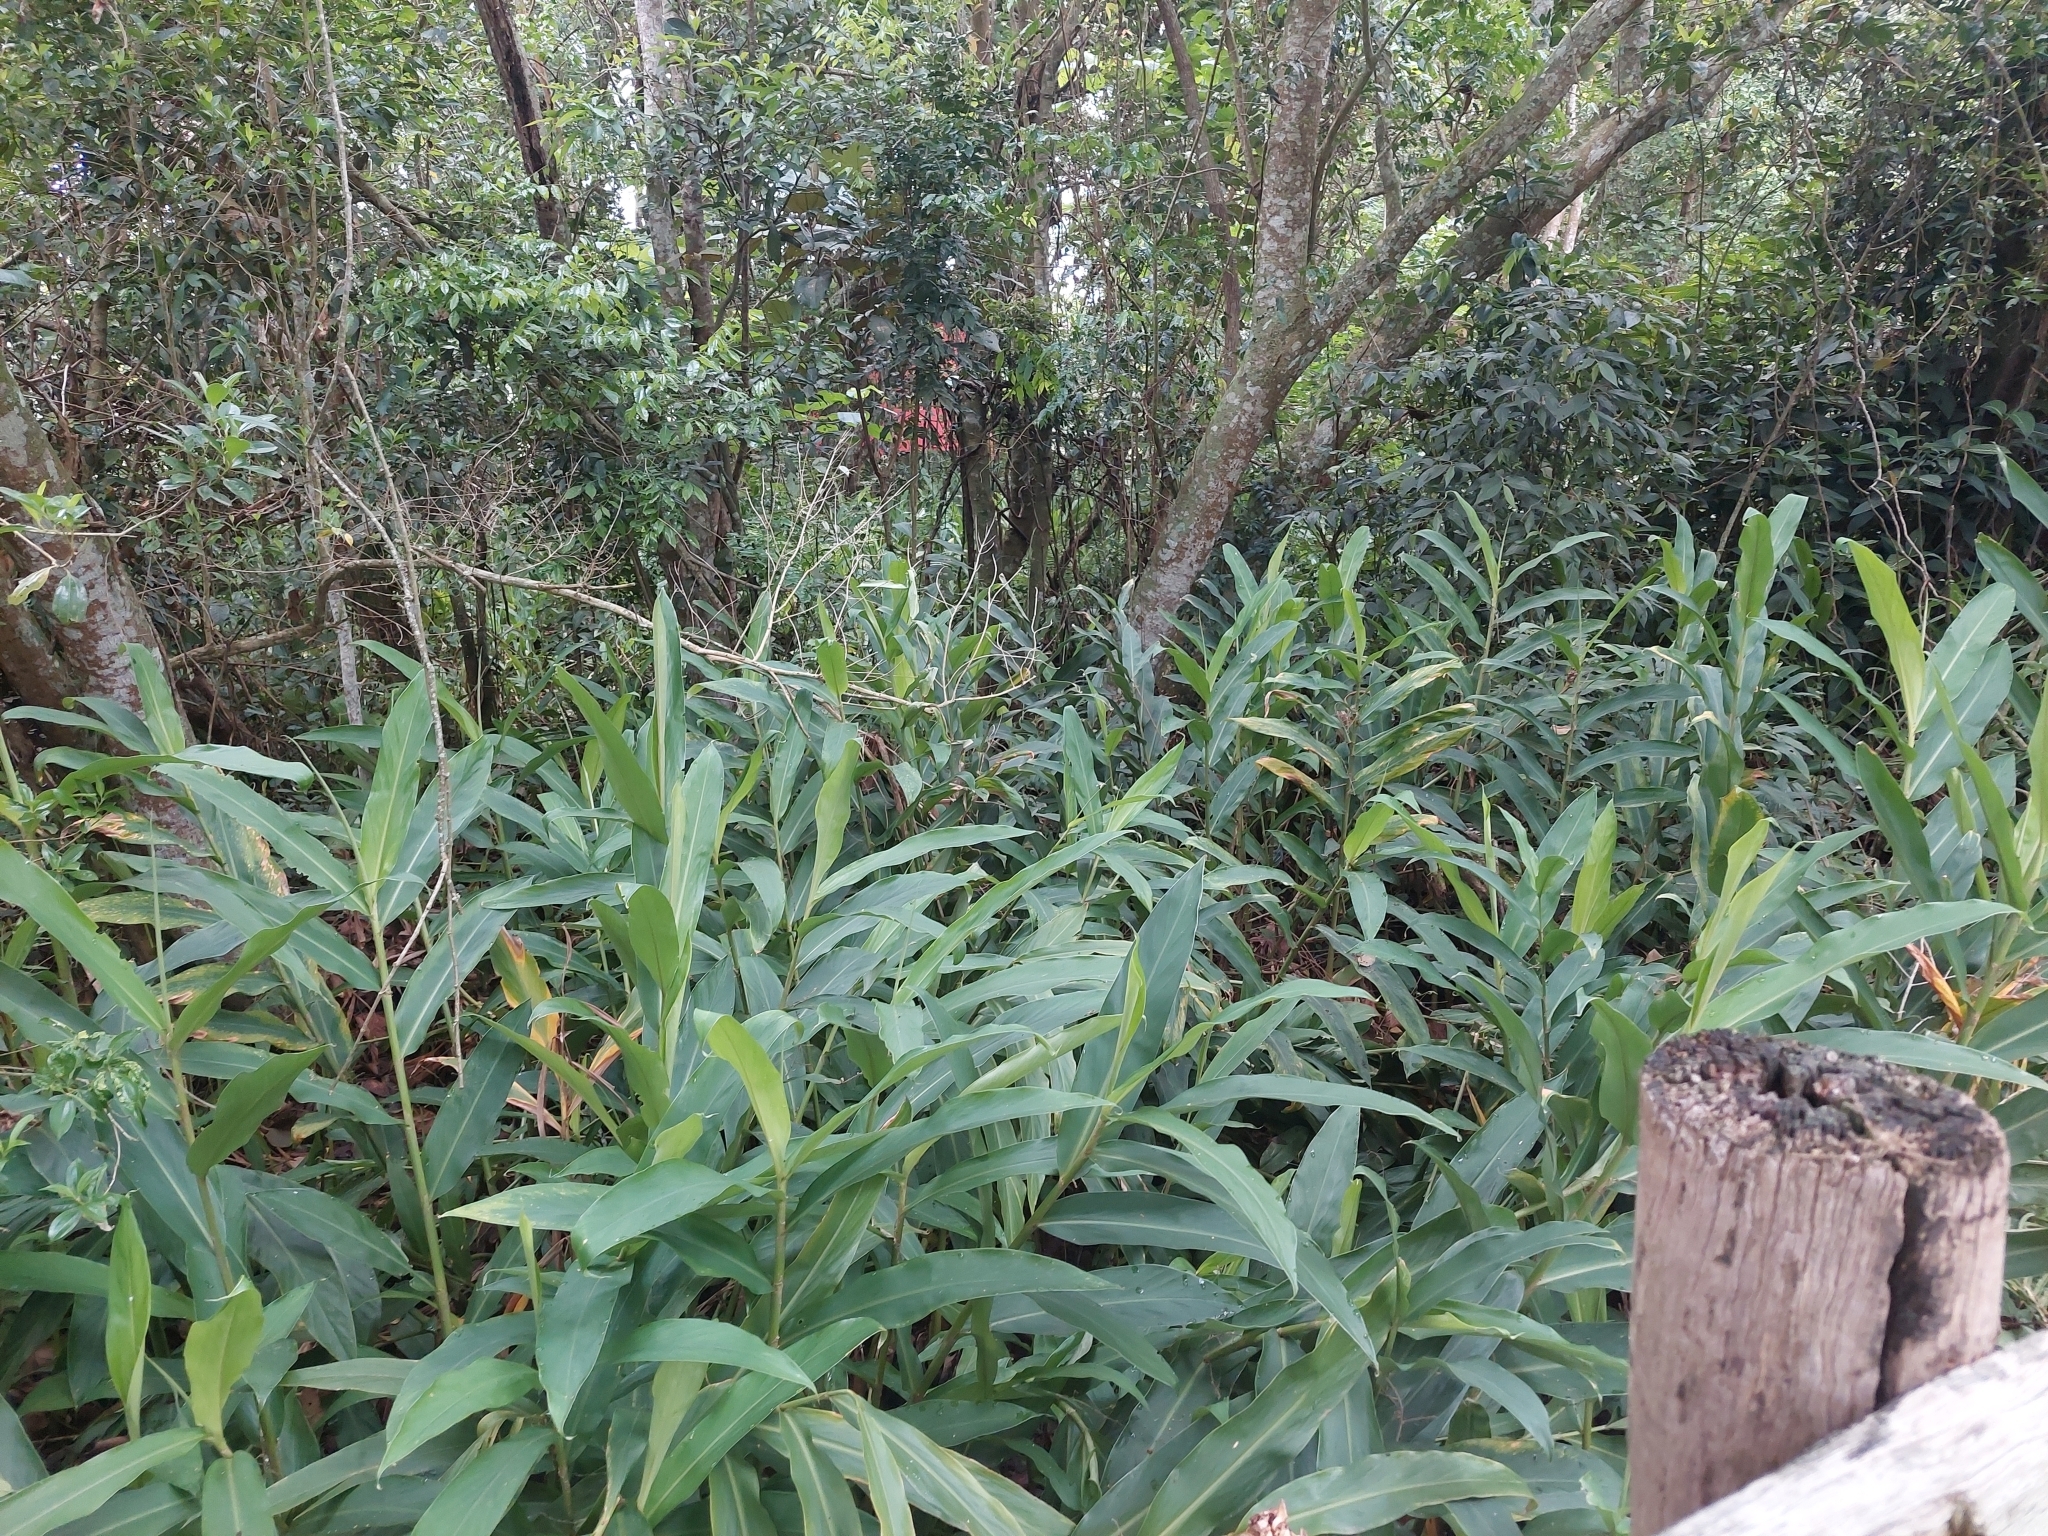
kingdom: Plantae
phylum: Tracheophyta
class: Liliopsida
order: Zingiberales
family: Zingiberaceae
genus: Hedychium
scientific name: Hedychium coronarium
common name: White garland-lily
